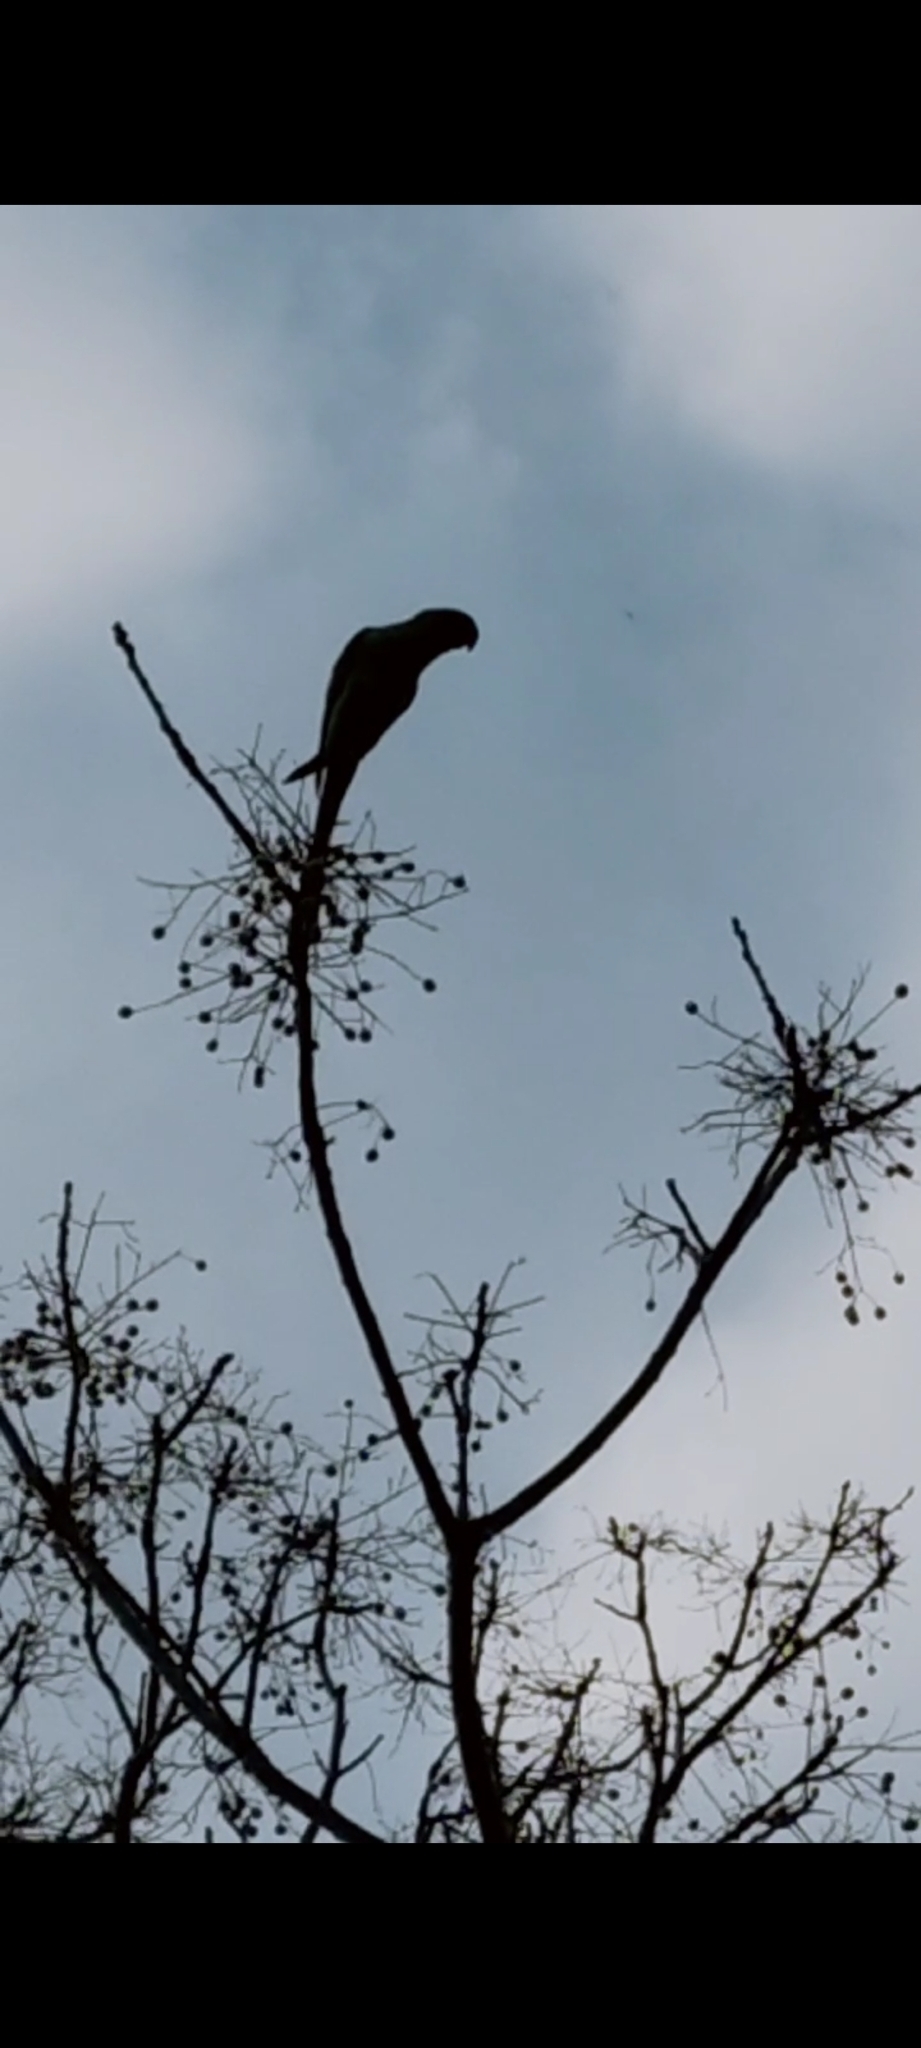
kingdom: Animalia
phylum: Chordata
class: Aves
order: Psittaciformes
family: Psittacidae
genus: Psittacula
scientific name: Psittacula krameri
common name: Rose-ringed parakeet
